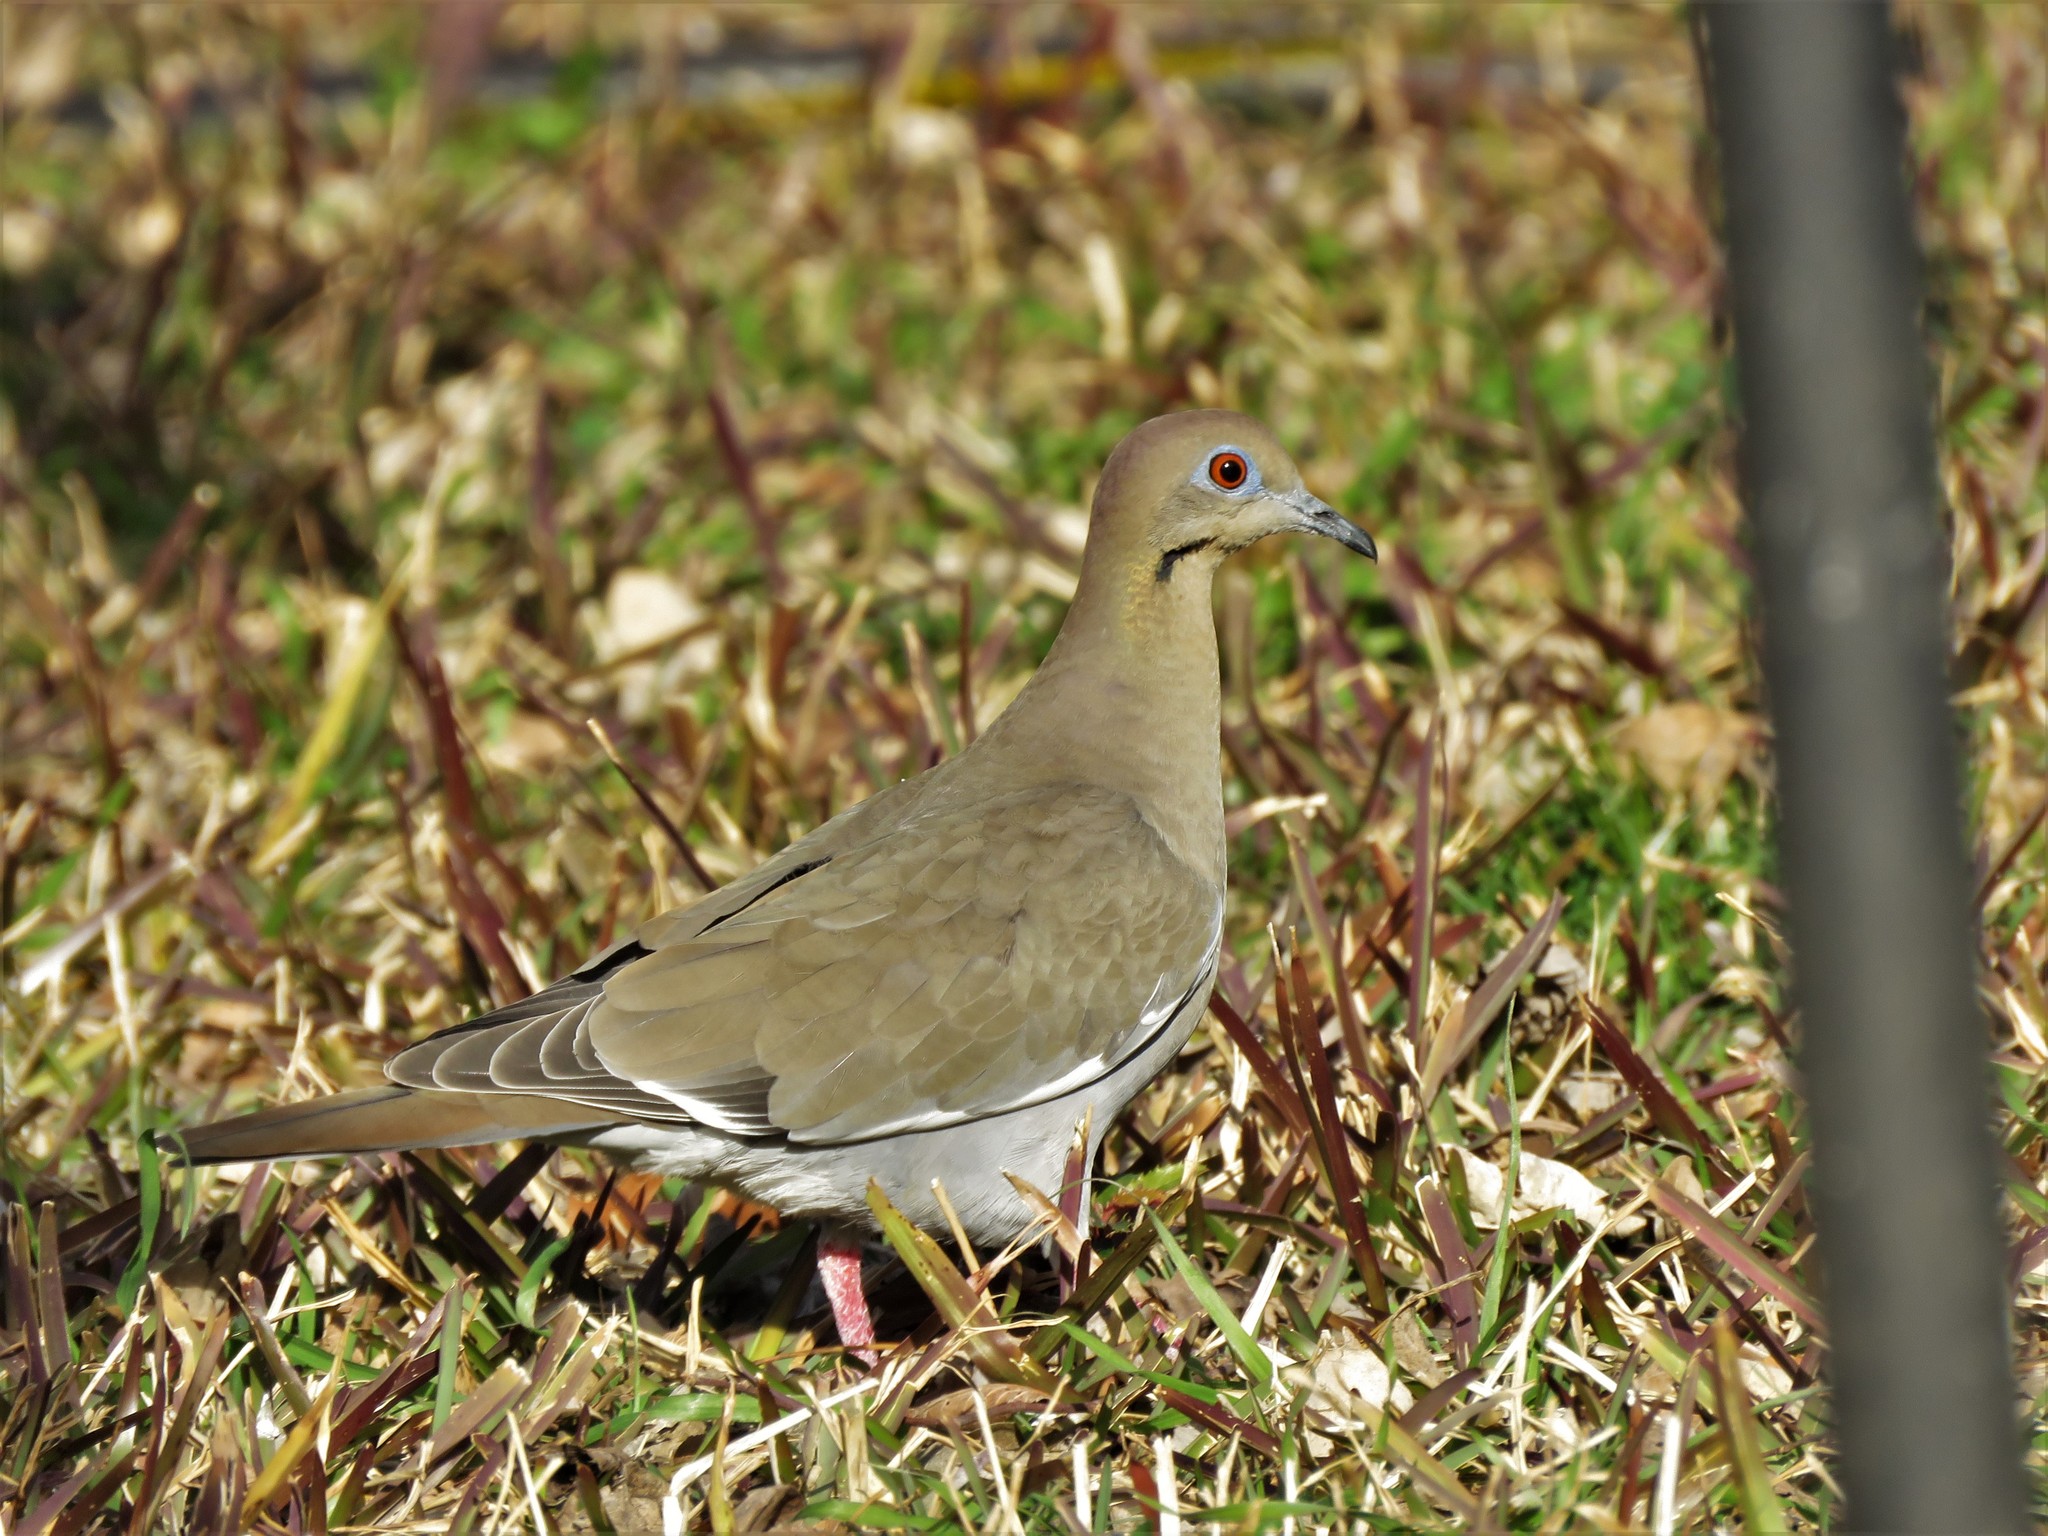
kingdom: Animalia
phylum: Chordata
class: Aves
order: Columbiformes
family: Columbidae
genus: Zenaida
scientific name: Zenaida asiatica
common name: White-winged dove
